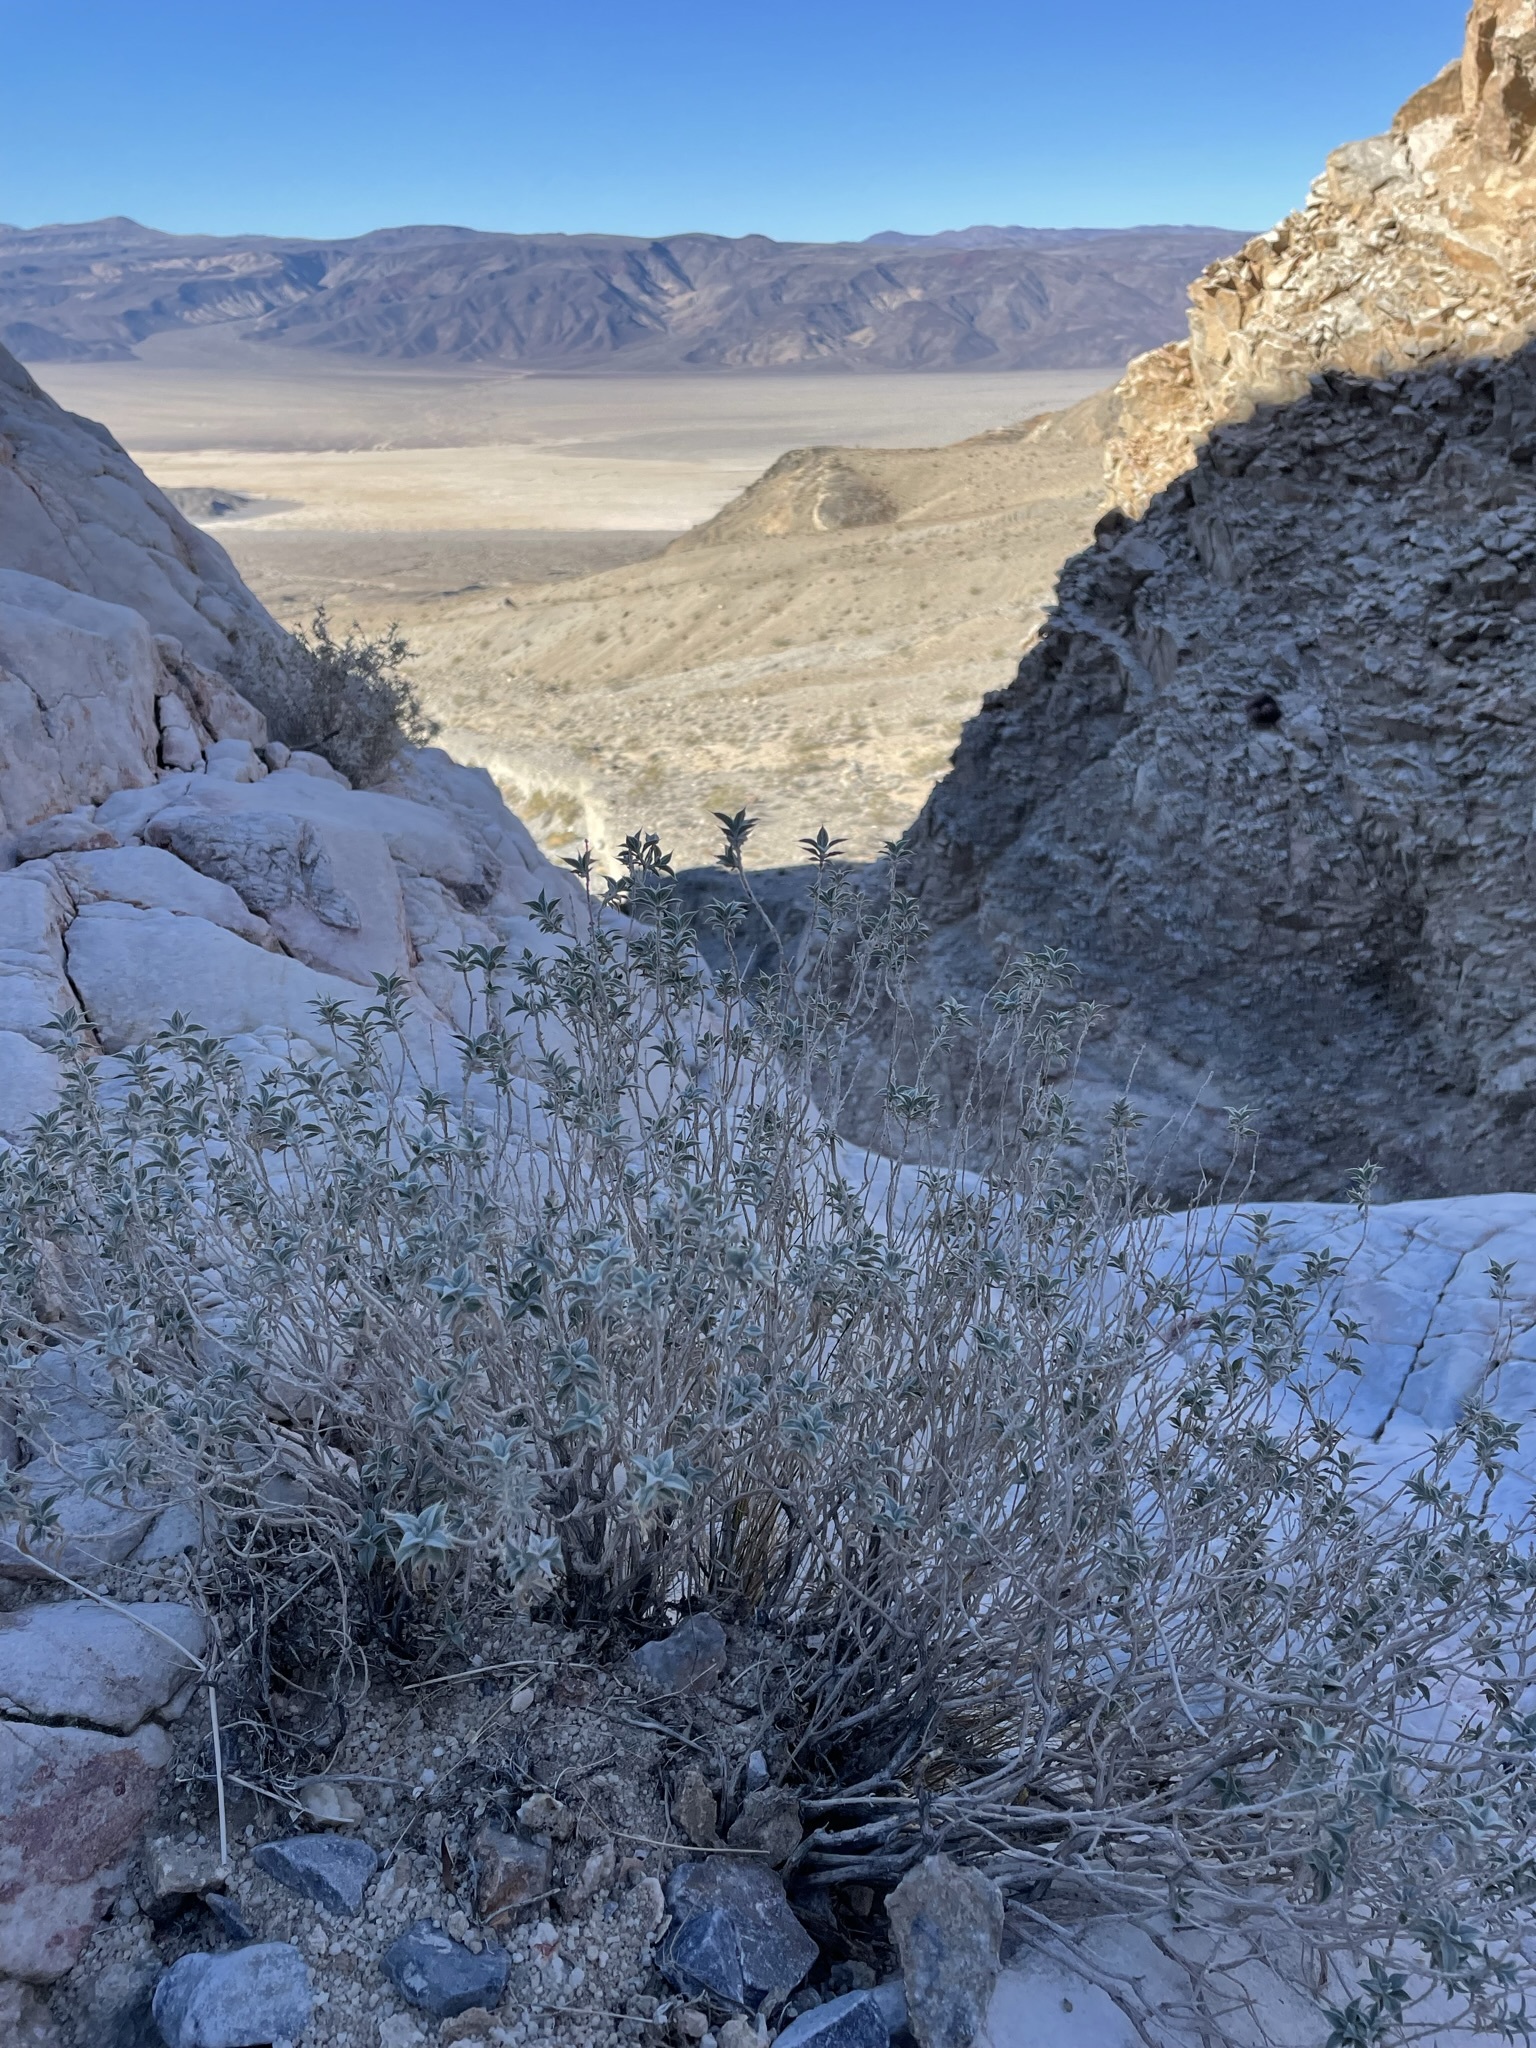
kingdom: Plantae
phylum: Tracheophyta
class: Magnoliopsida
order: Lamiales
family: Lamiaceae
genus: Salvia
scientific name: Salvia funerea
